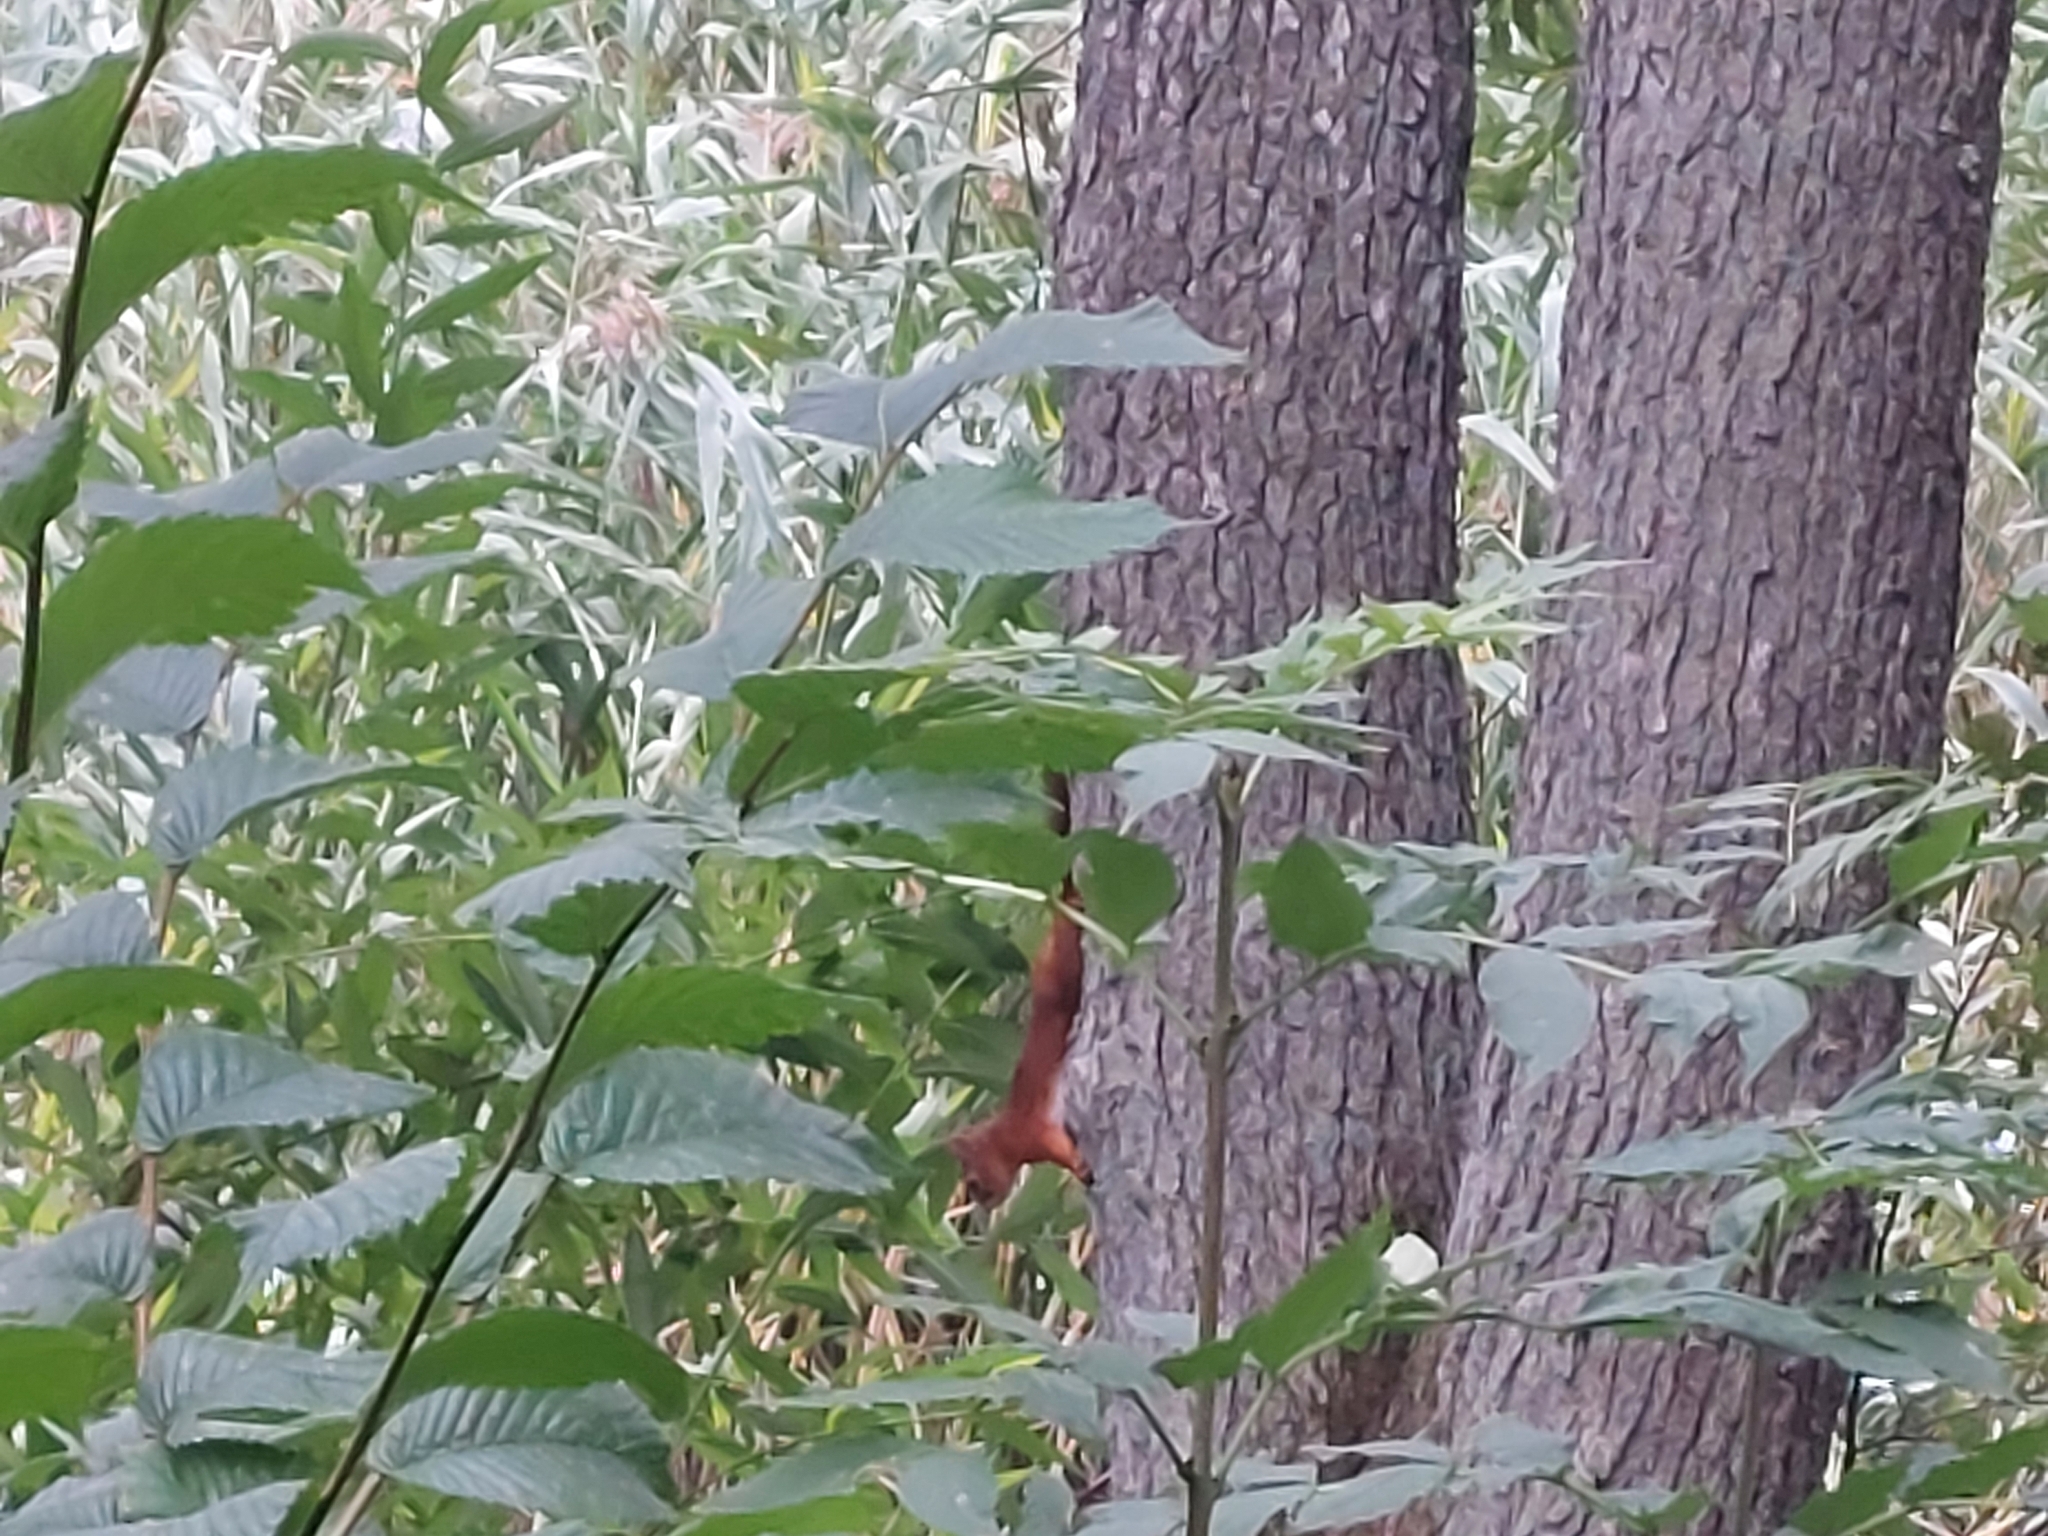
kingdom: Animalia
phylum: Chordata
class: Mammalia
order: Rodentia
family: Sciuridae
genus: Sciurus
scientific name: Sciurus vulgaris
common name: Eurasian red squirrel
